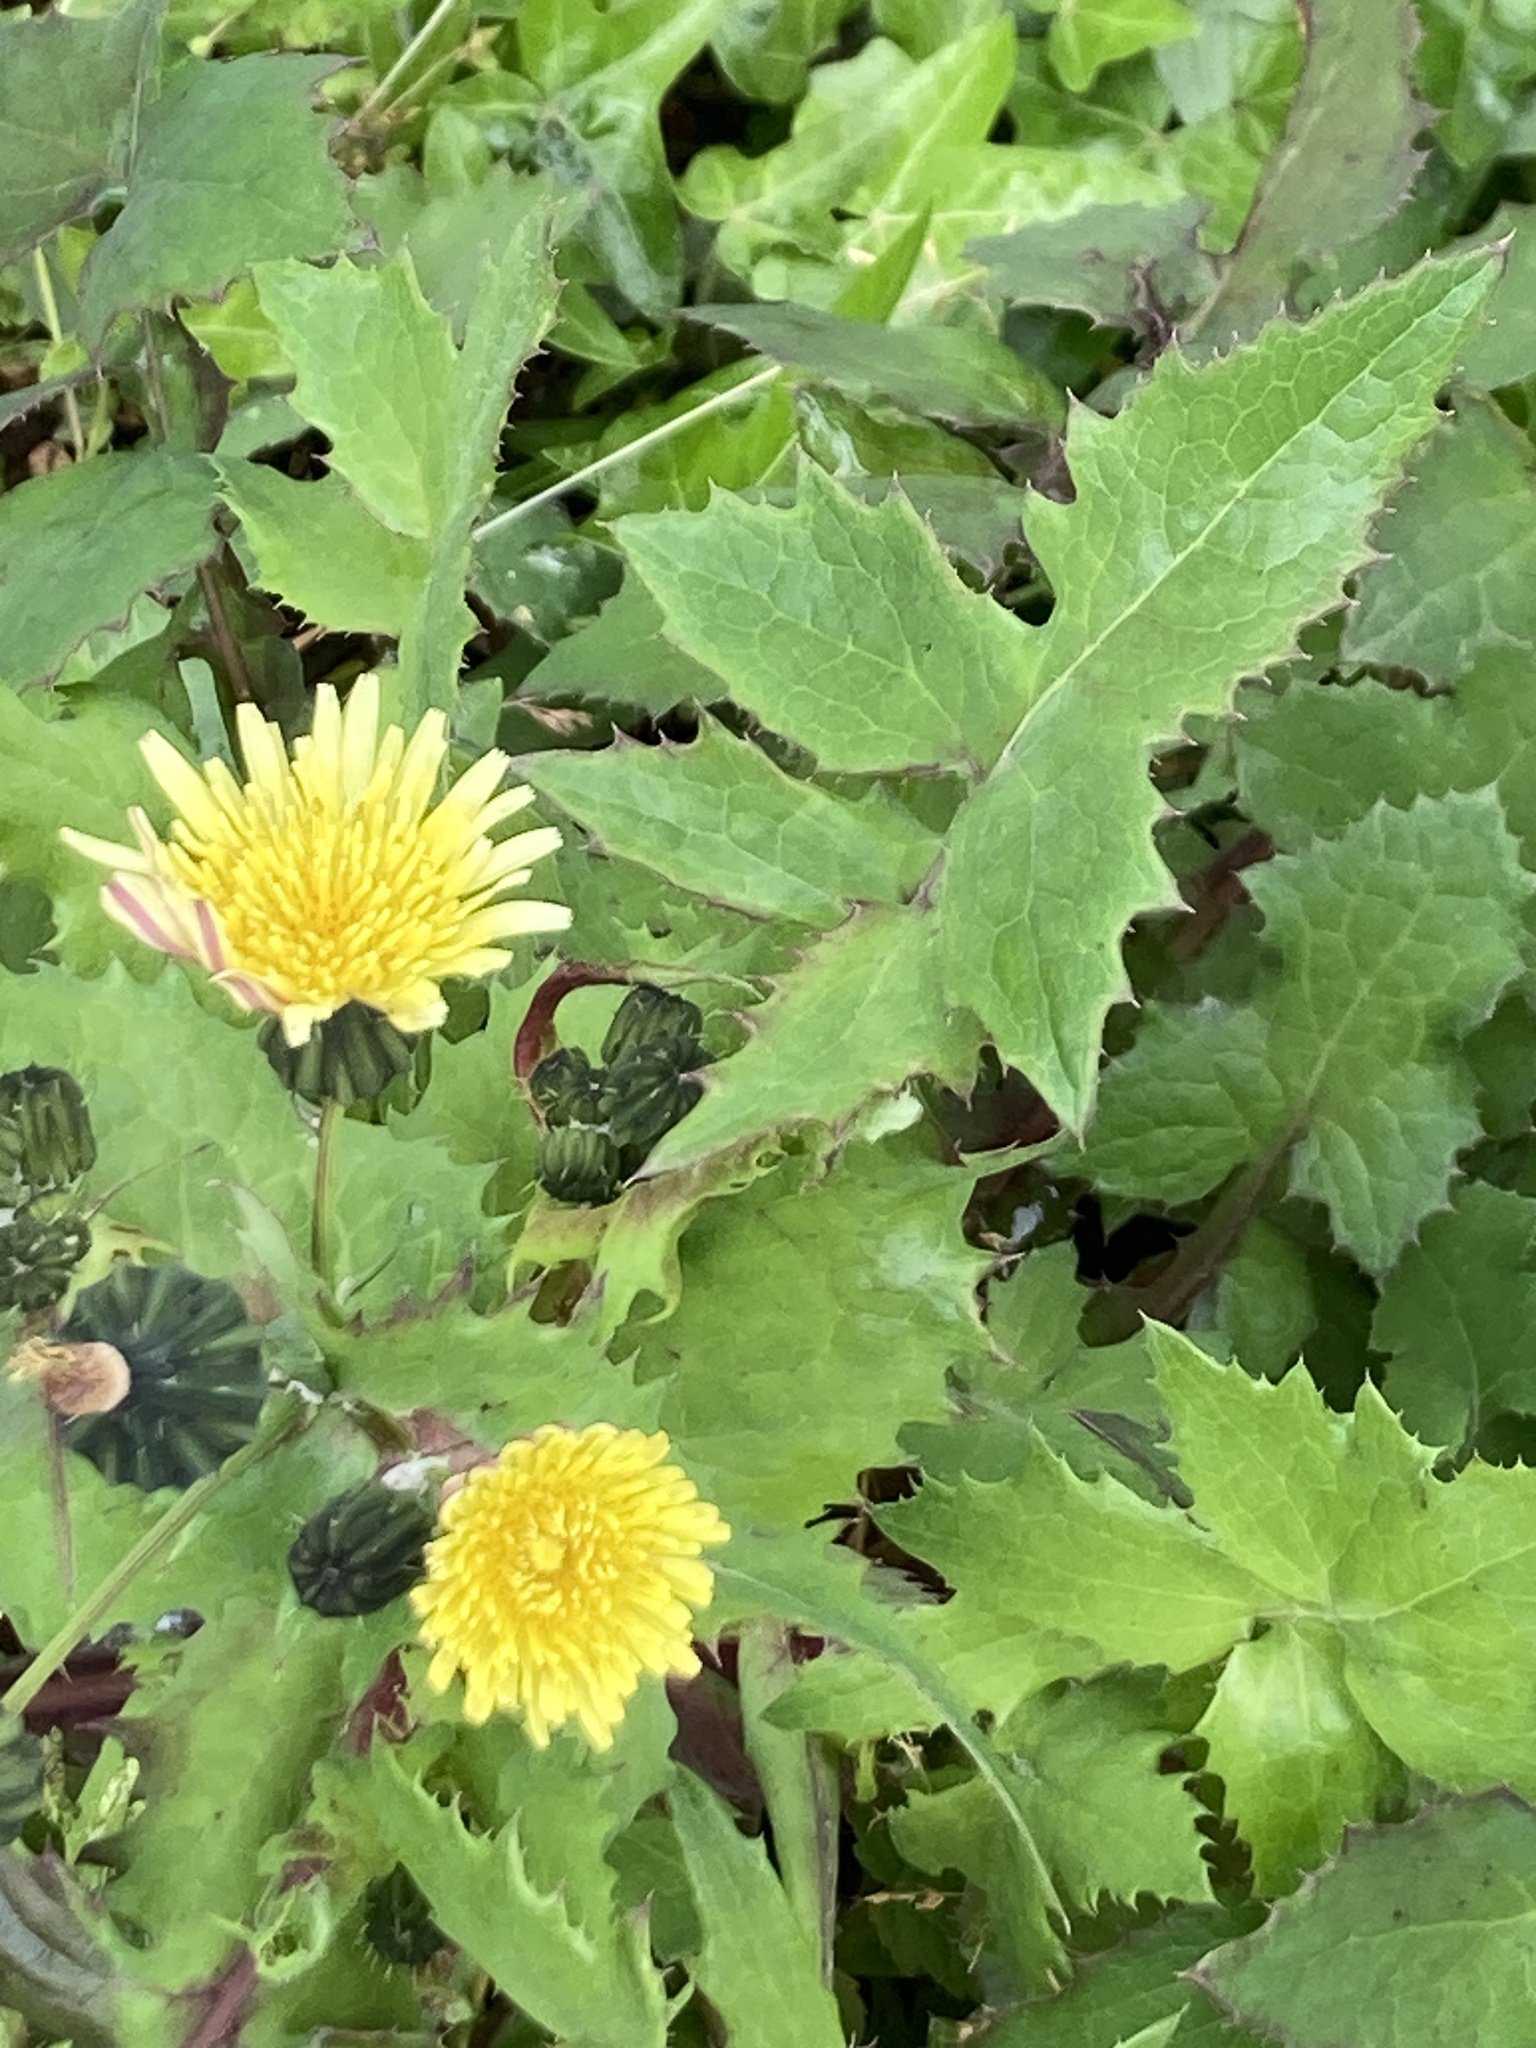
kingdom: Plantae
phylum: Tracheophyta
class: Magnoliopsida
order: Asterales
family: Asteraceae
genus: Sonchus
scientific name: Sonchus oleraceus
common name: Common sowthistle
